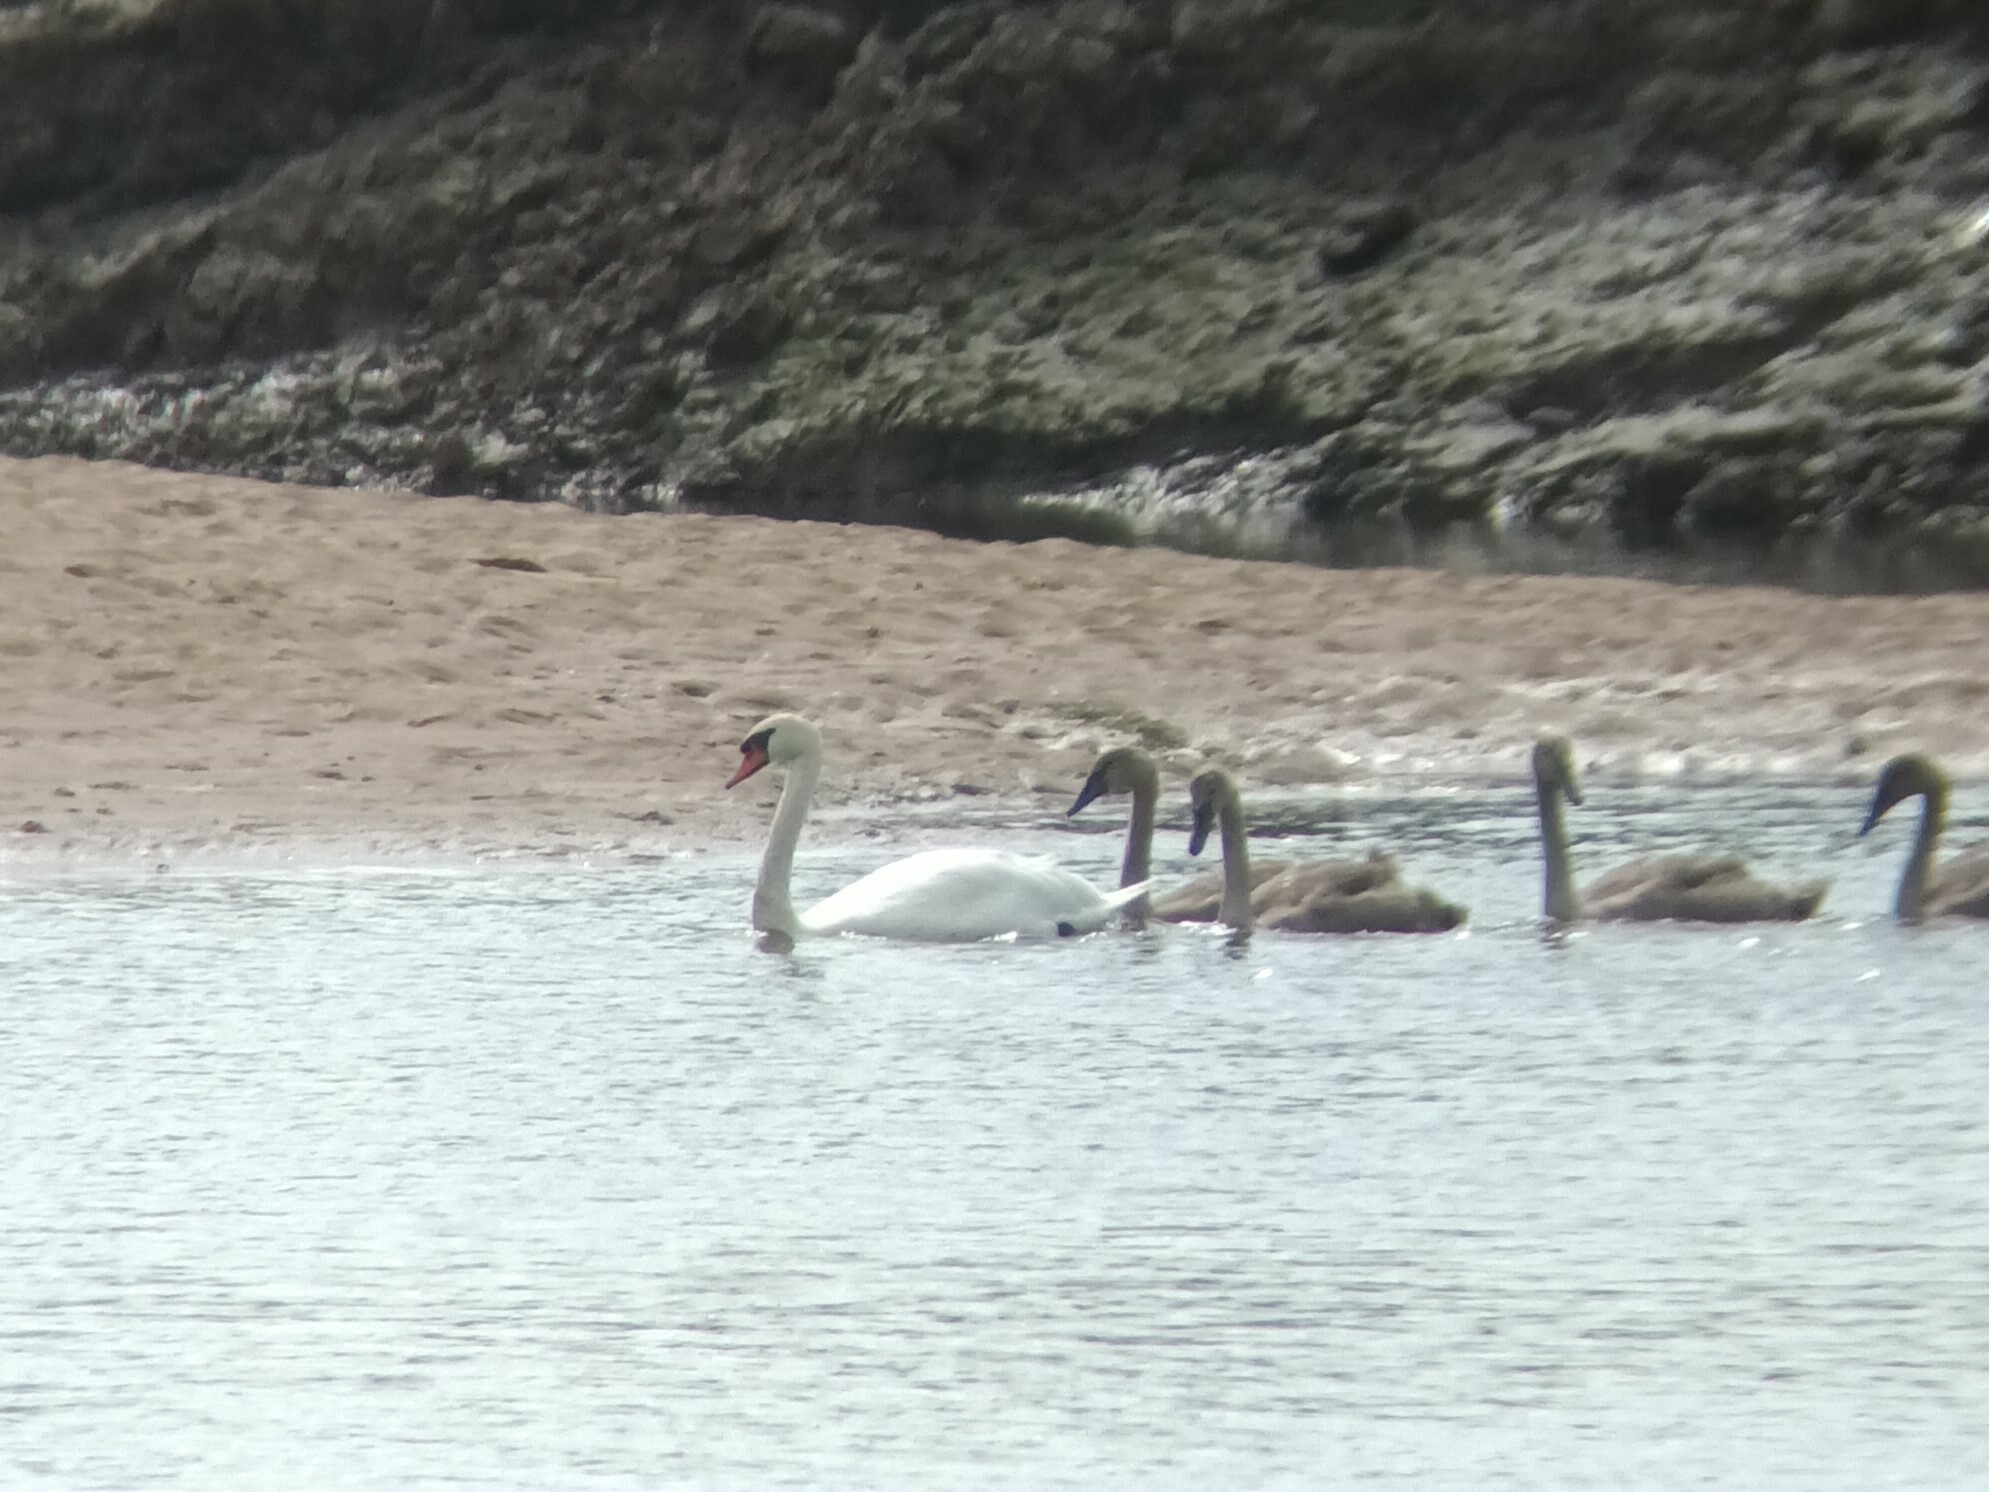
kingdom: Animalia
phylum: Chordata
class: Aves
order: Anseriformes
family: Anatidae
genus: Cygnus
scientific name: Cygnus olor
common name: Mute swan
